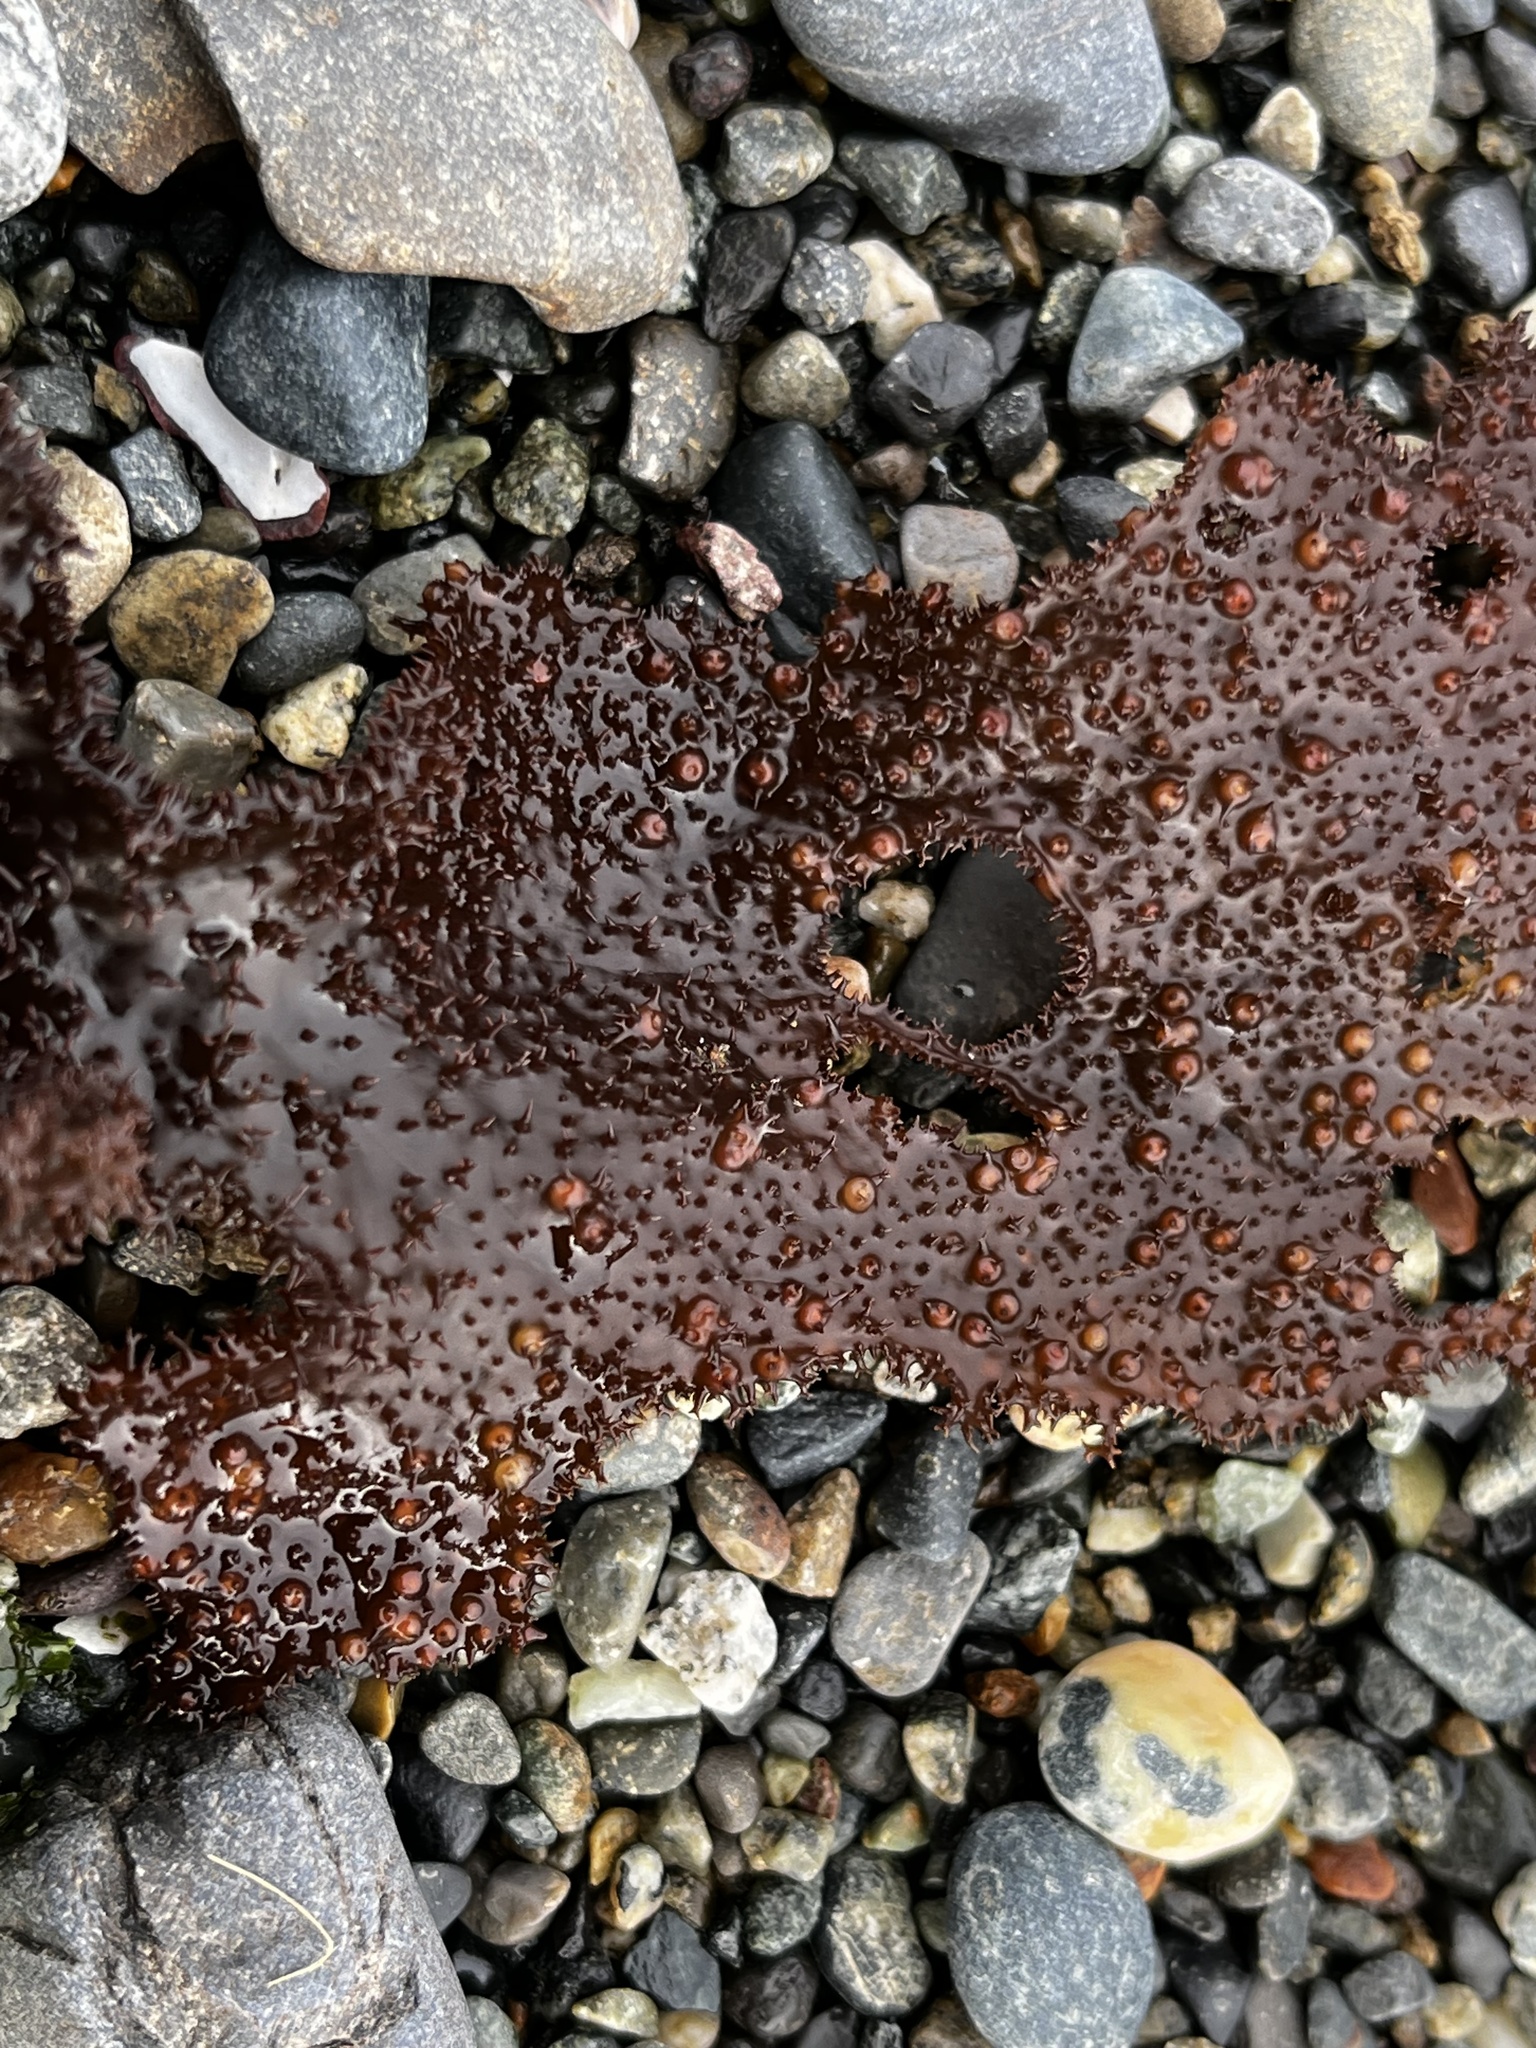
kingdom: Plantae
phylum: Rhodophyta
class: Florideophyceae
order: Gigartinales
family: Gigartinaceae
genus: Sarcothalia
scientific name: Sarcothalia
